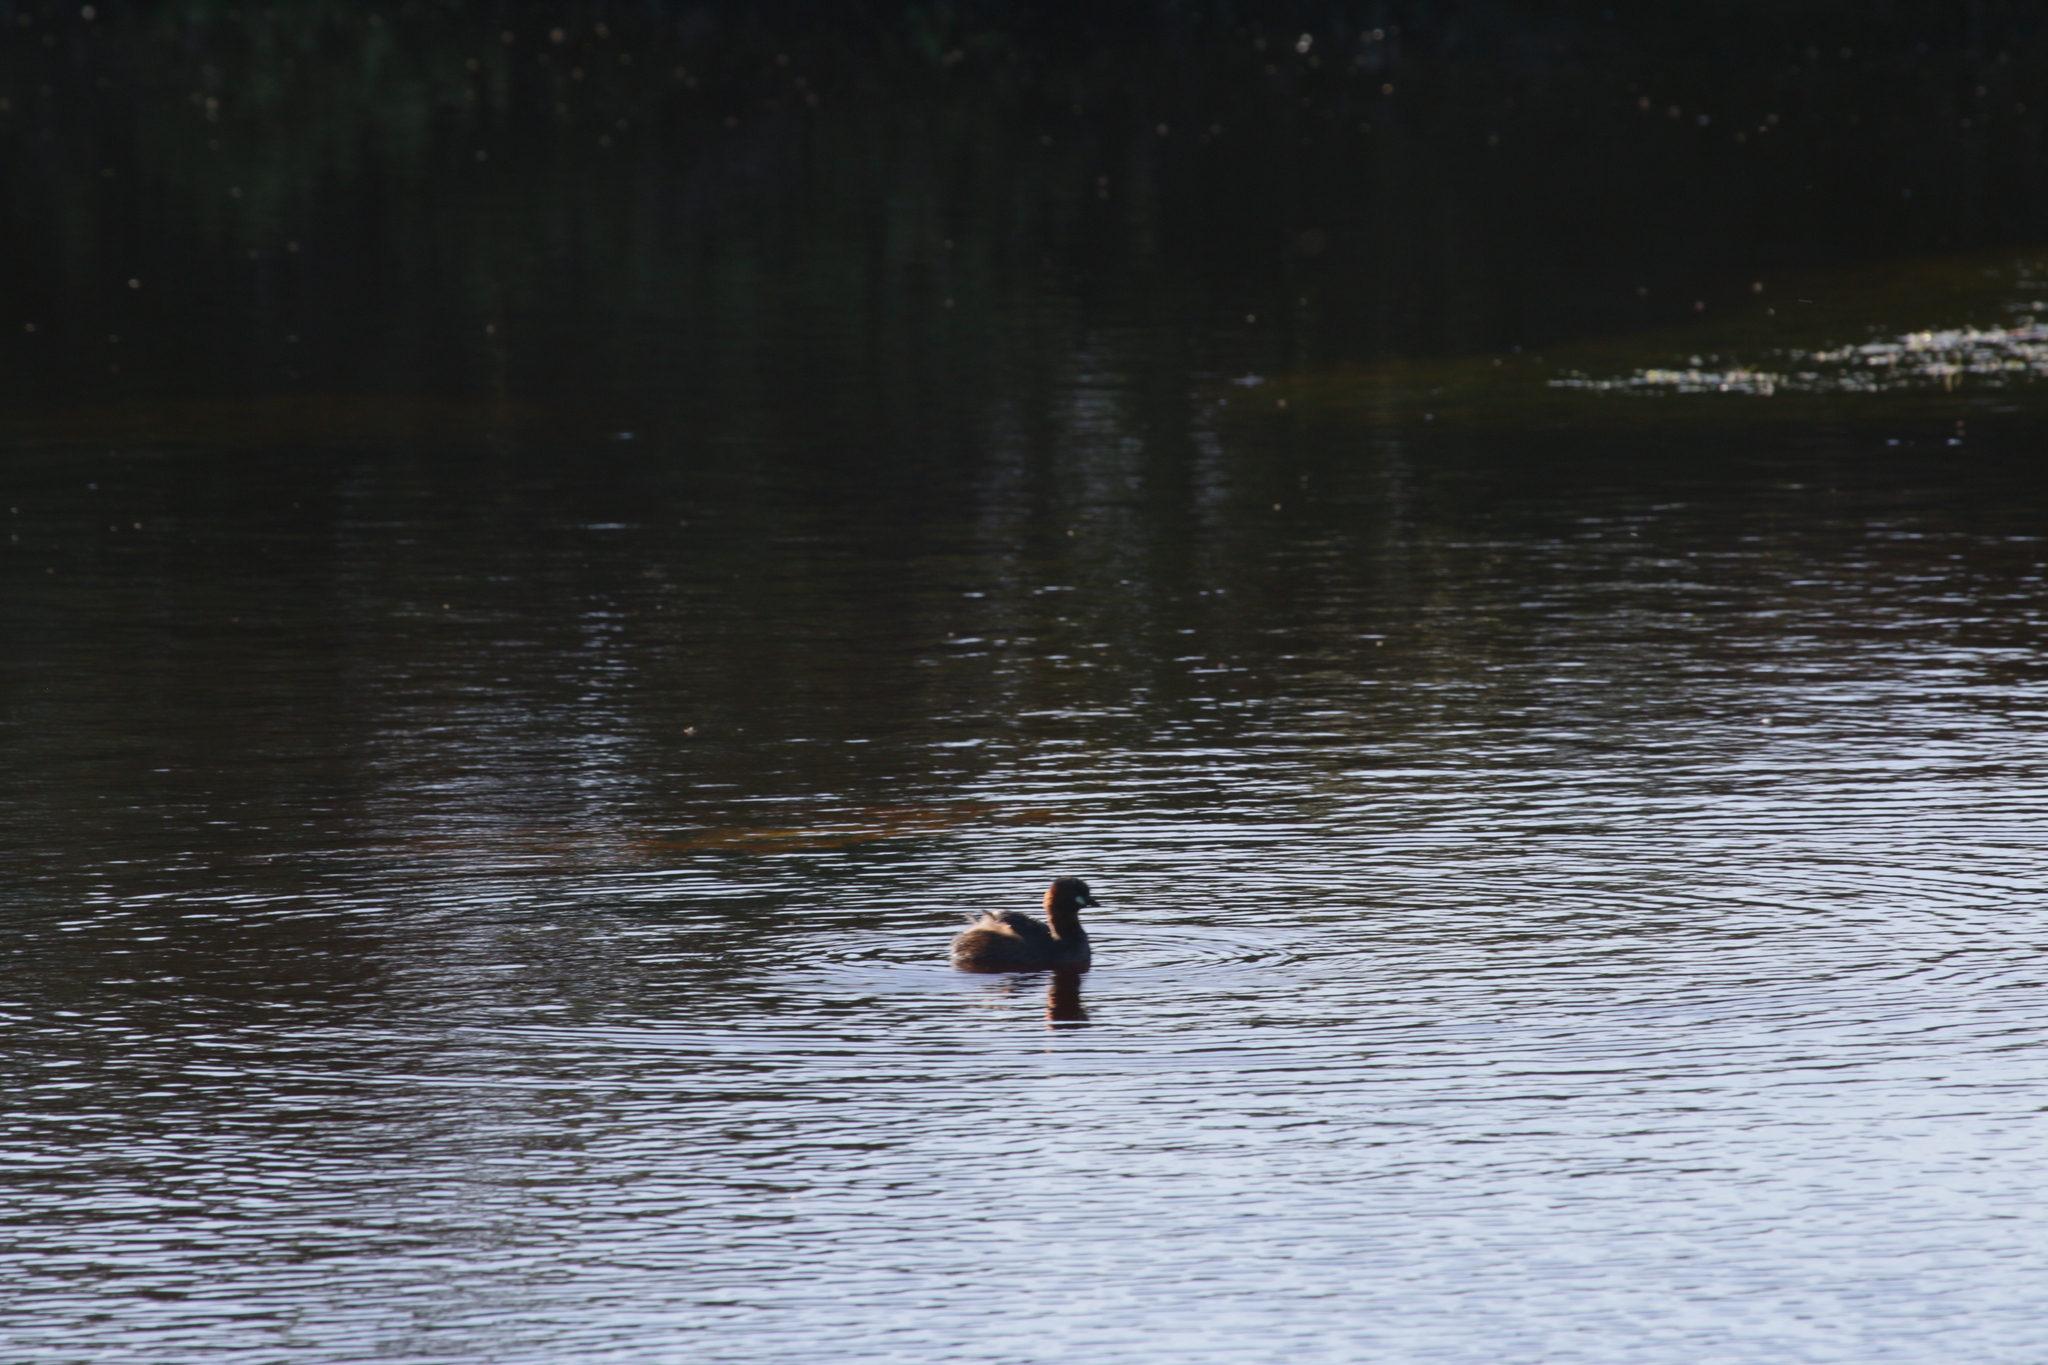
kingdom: Animalia
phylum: Chordata
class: Aves
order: Podicipediformes
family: Podicipedidae
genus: Tachybaptus
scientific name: Tachybaptus ruficollis
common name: Little grebe
